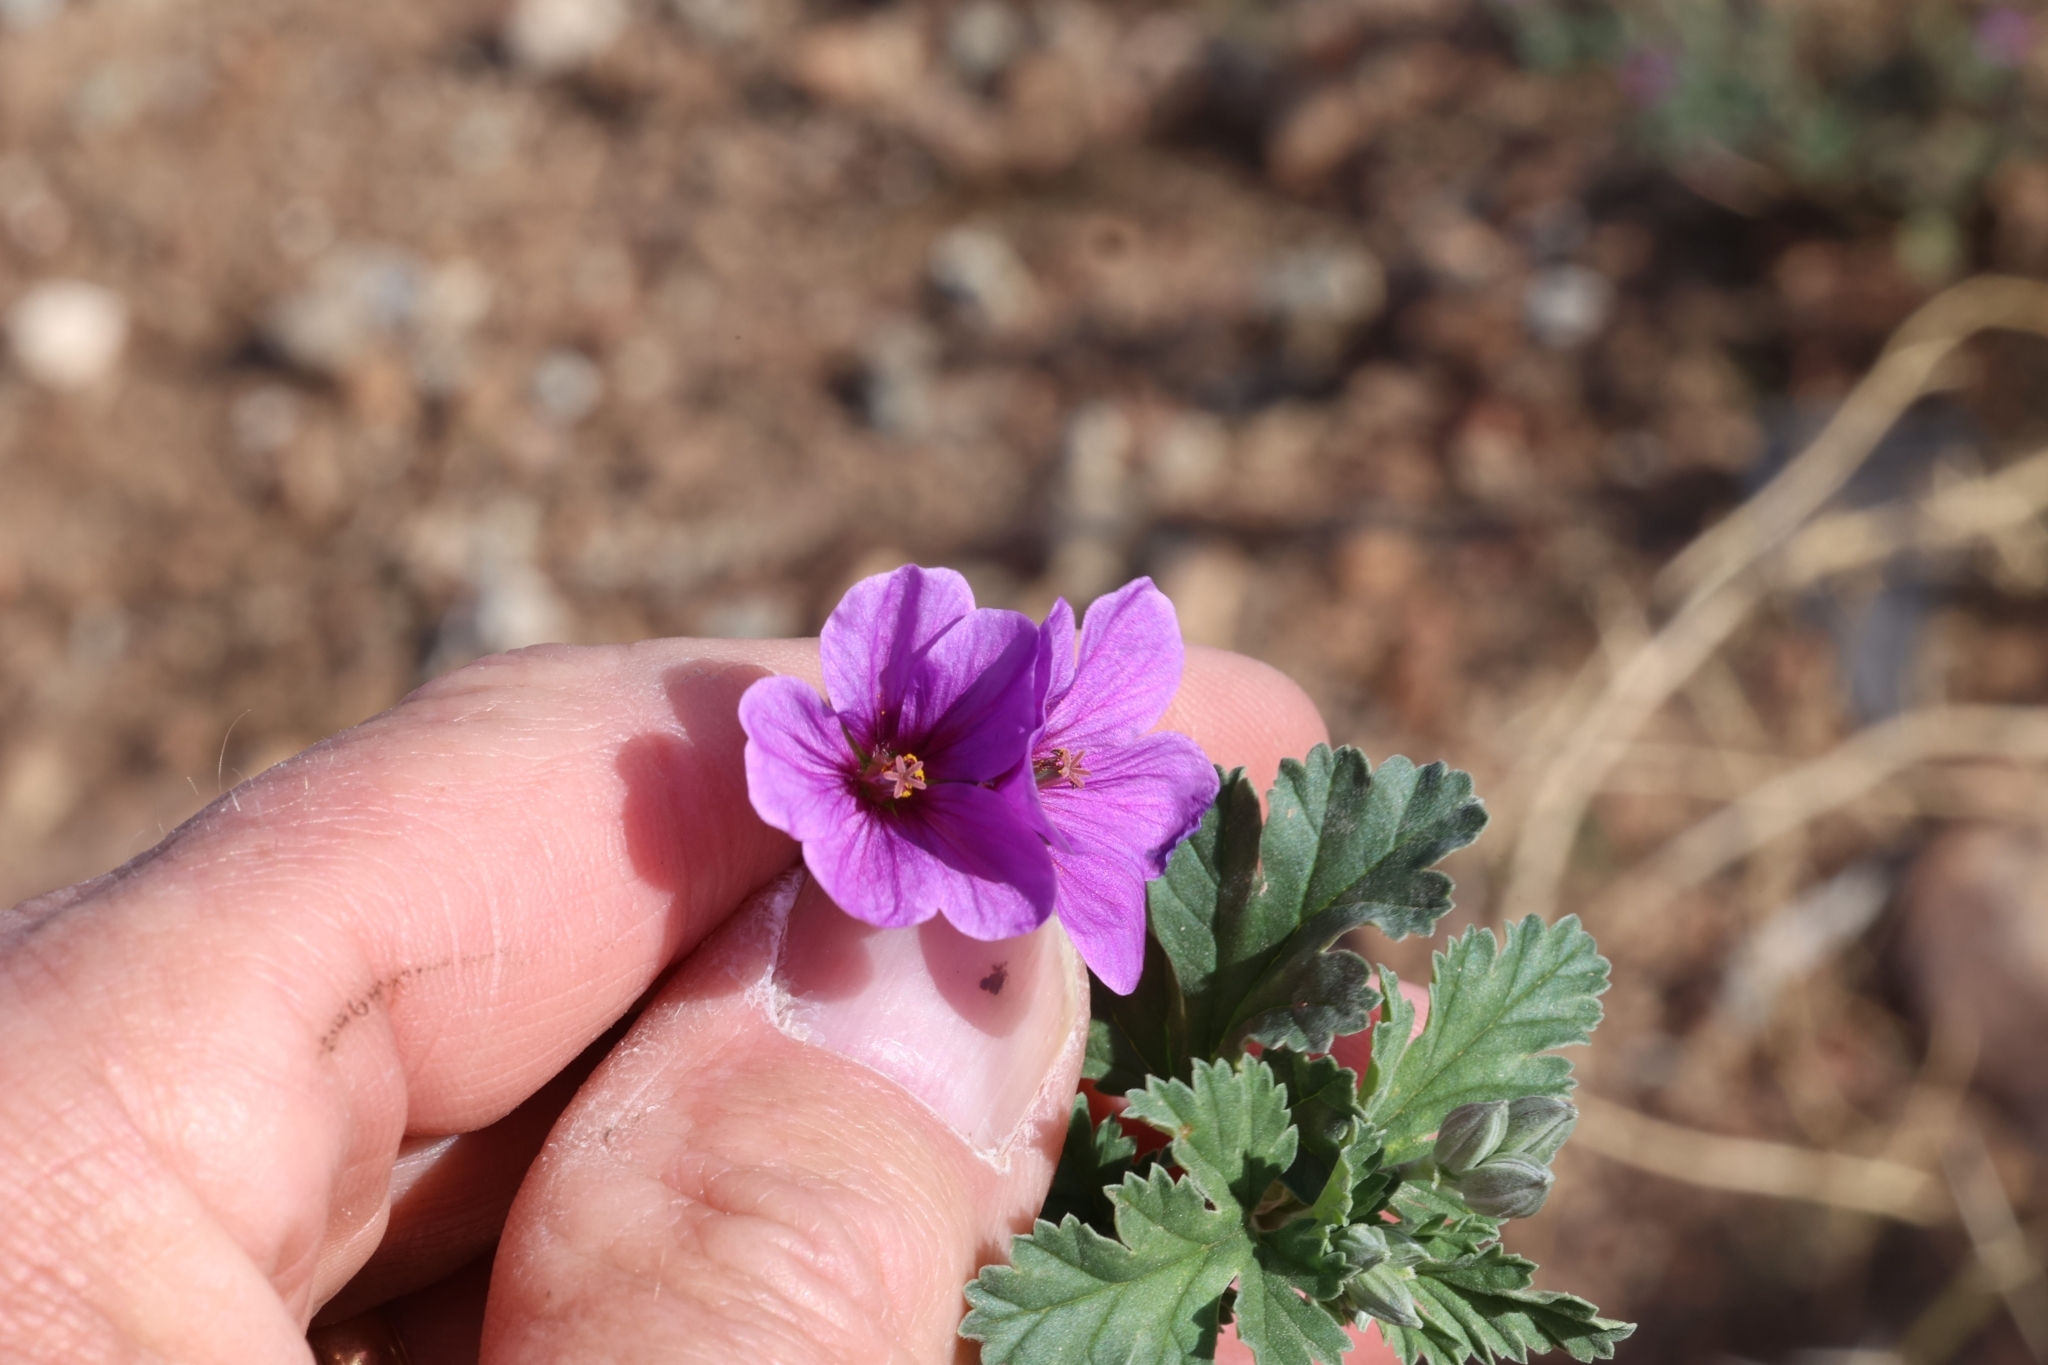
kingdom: Plantae
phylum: Tracheophyta
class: Magnoliopsida
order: Geraniales
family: Geraniaceae
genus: Erodium
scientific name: Erodium texanum
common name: Texas stork's-bill
